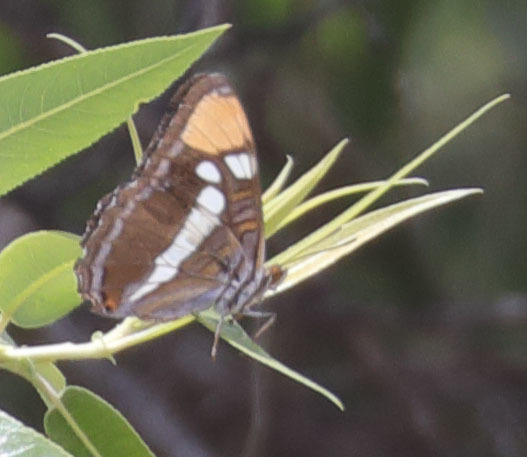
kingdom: Animalia
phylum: Arthropoda
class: Insecta
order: Lepidoptera
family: Nymphalidae
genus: Limenitis
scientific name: Limenitis bredowii
